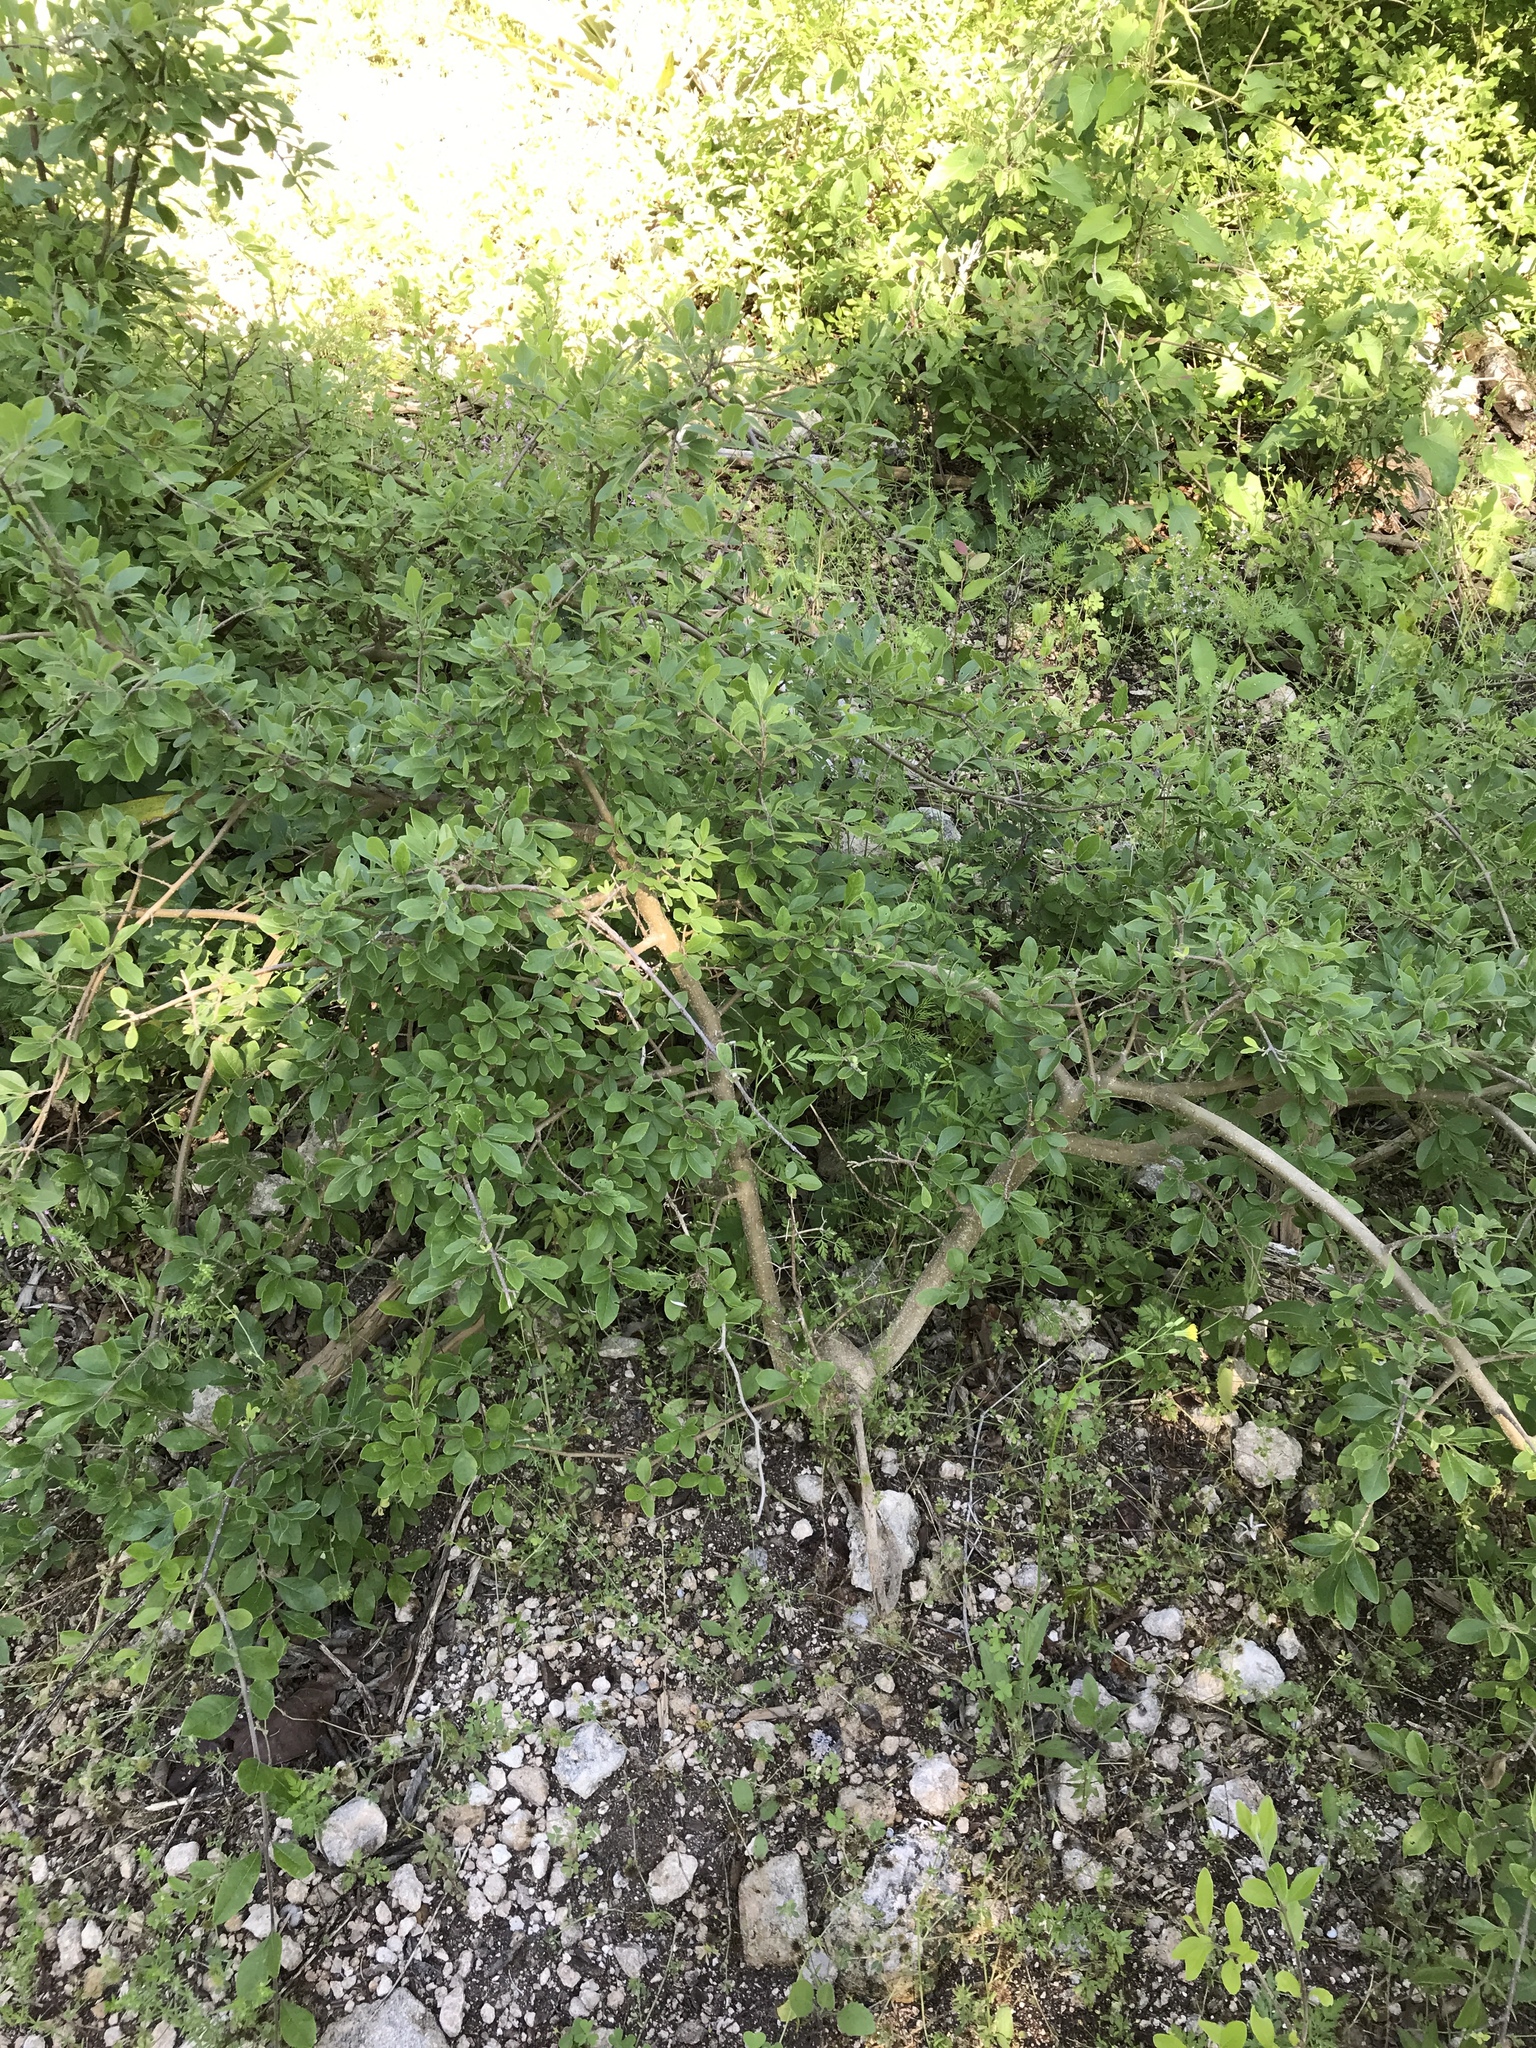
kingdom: Plantae
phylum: Tracheophyta
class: Magnoliopsida
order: Lamiales
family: Oleaceae
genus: Forestiera
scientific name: Forestiera pubescens
